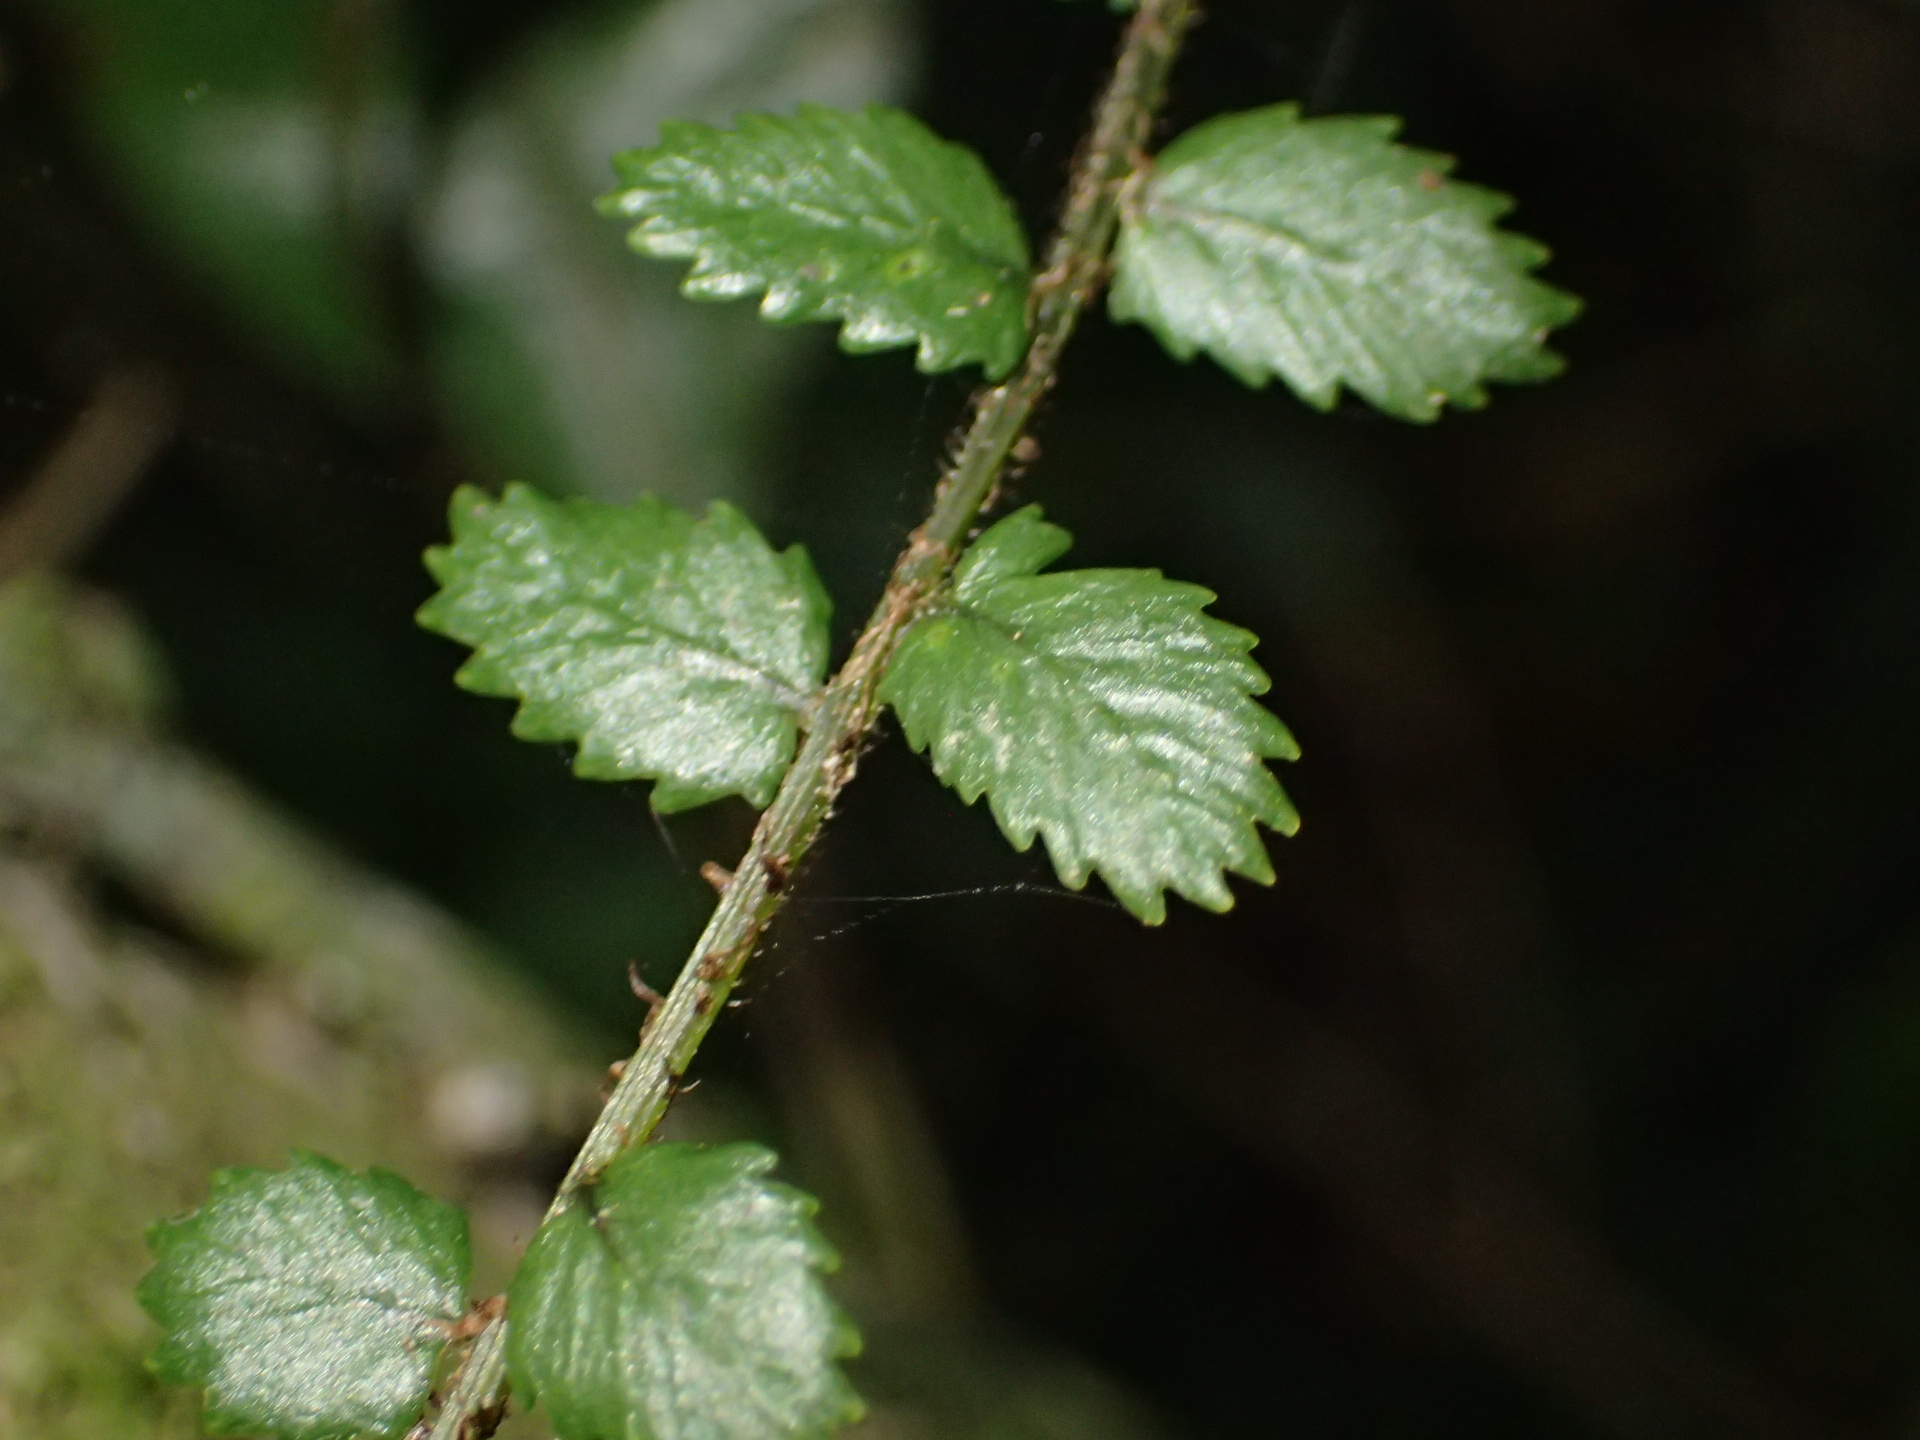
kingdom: Plantae
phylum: Tracheophyta
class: Polypodiopsida
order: Polypodiales
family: Blechnaceae
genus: Icarus
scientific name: Icarus filiformis
